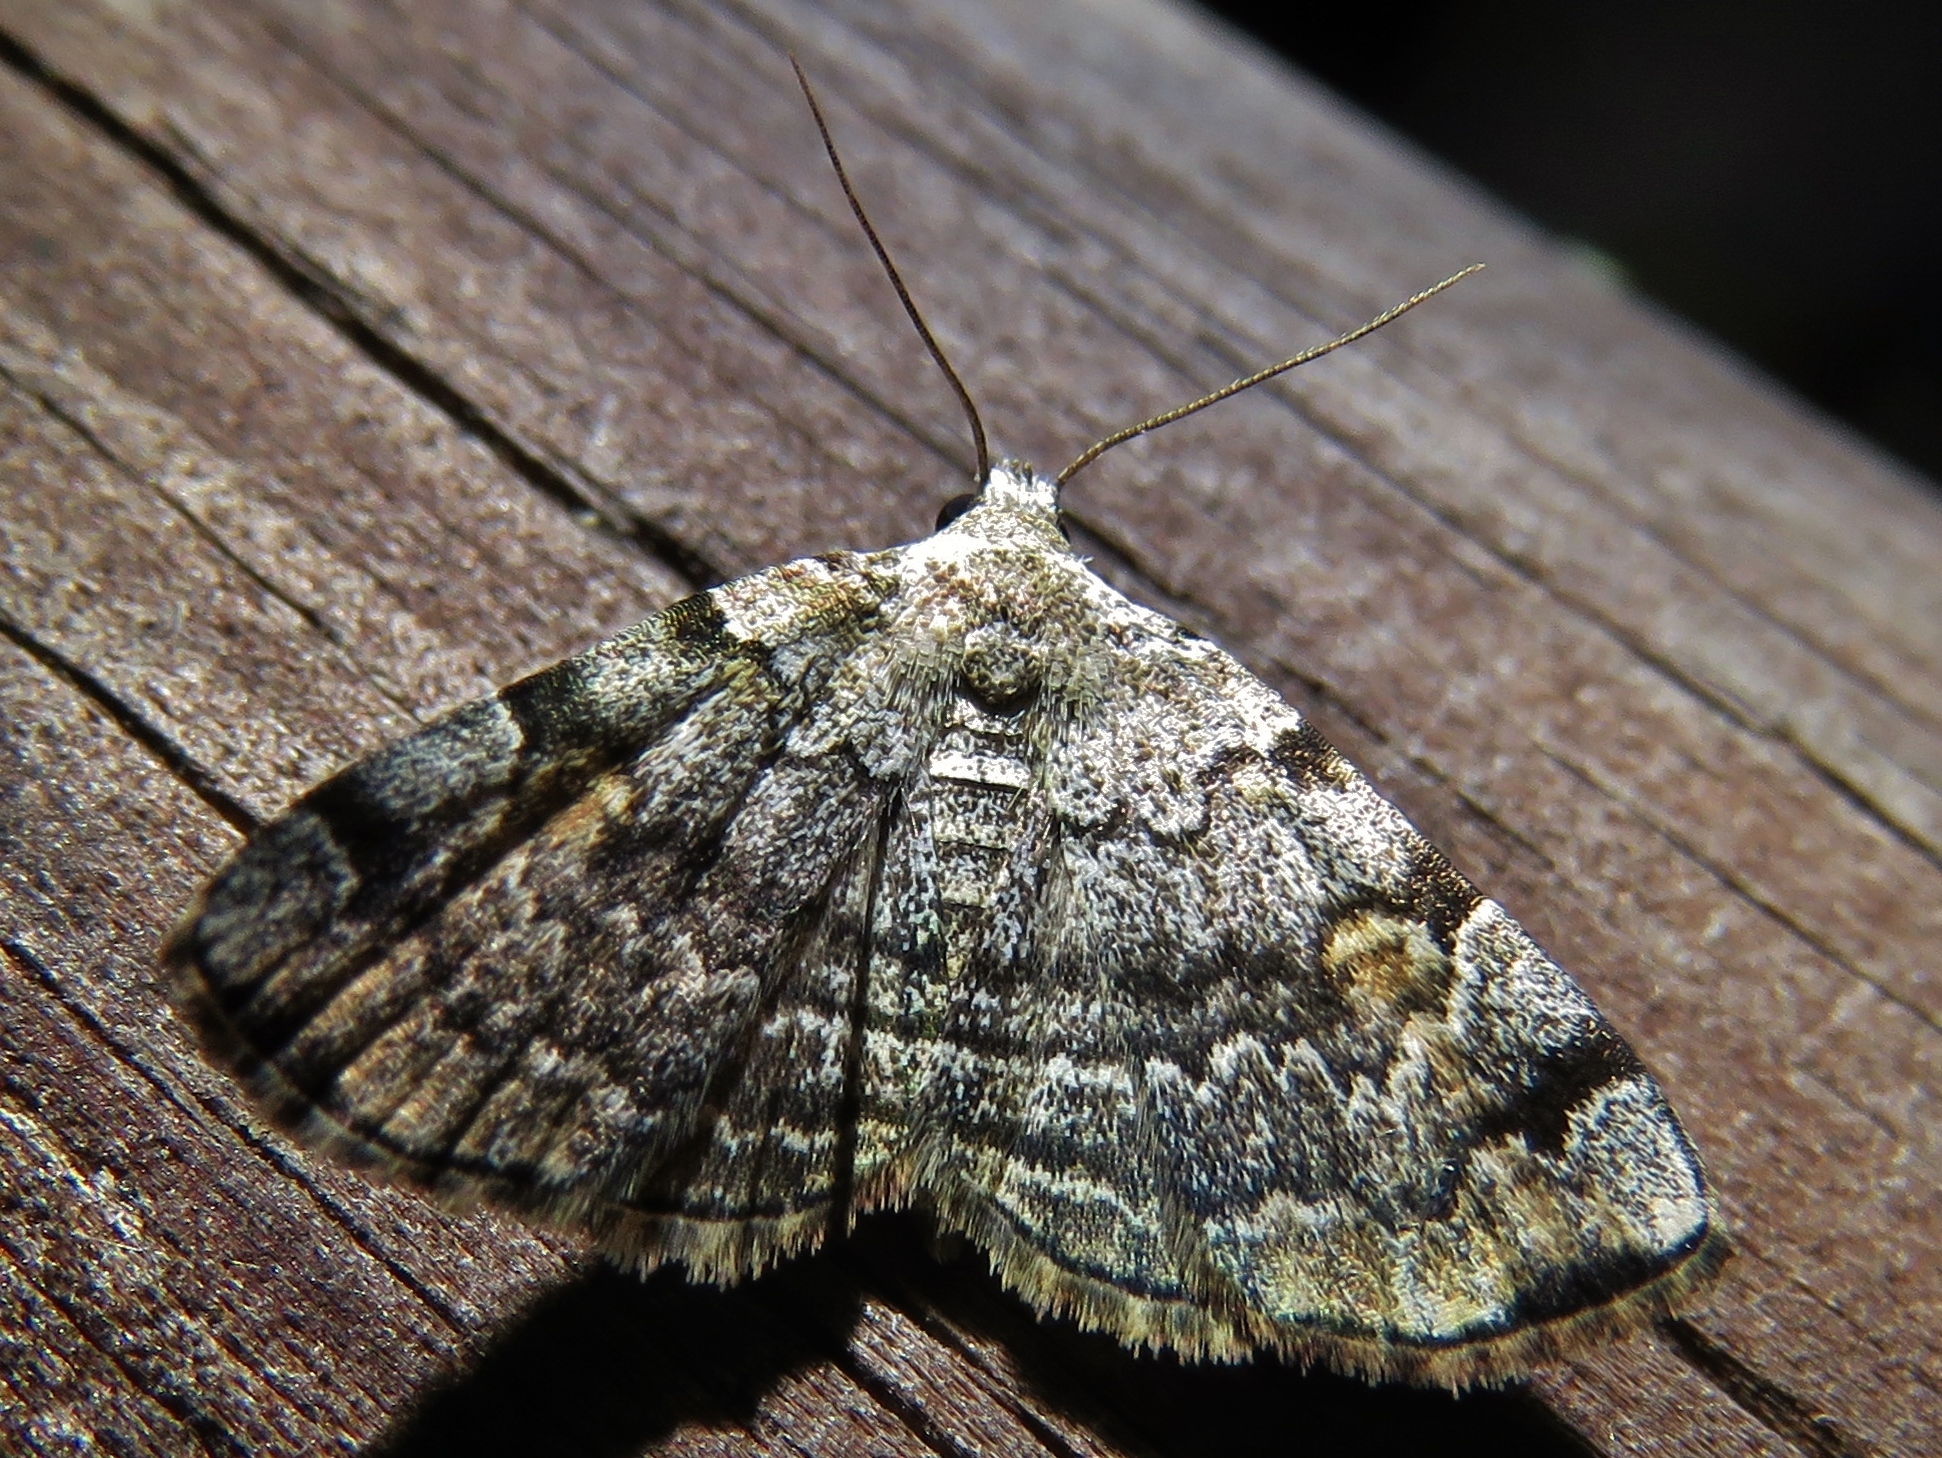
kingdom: Animalia
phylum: Arthropoda
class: Insecta
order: Lepidoptera
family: Erebidae
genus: Idia
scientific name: Idia americalis
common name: American idia moth
